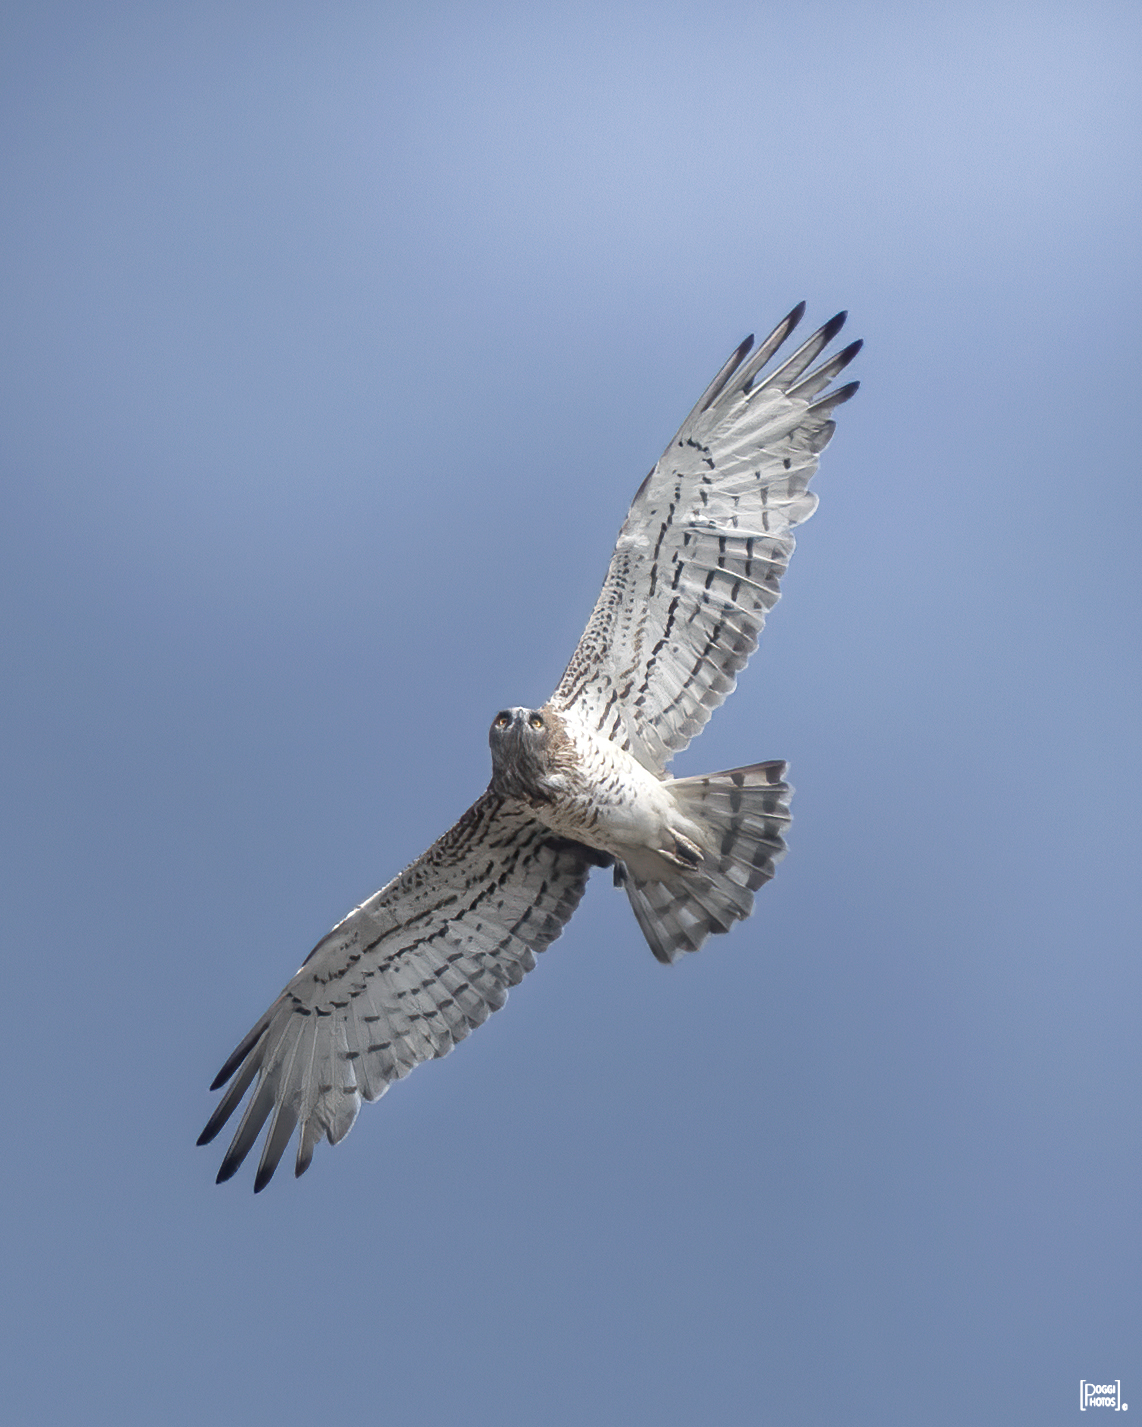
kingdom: Animalia
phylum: Chordata
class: Aves
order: Accipitriformes
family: Accipitridae
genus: Circaetus
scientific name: Circaetus gallicus
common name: Short-toed snake eagle
